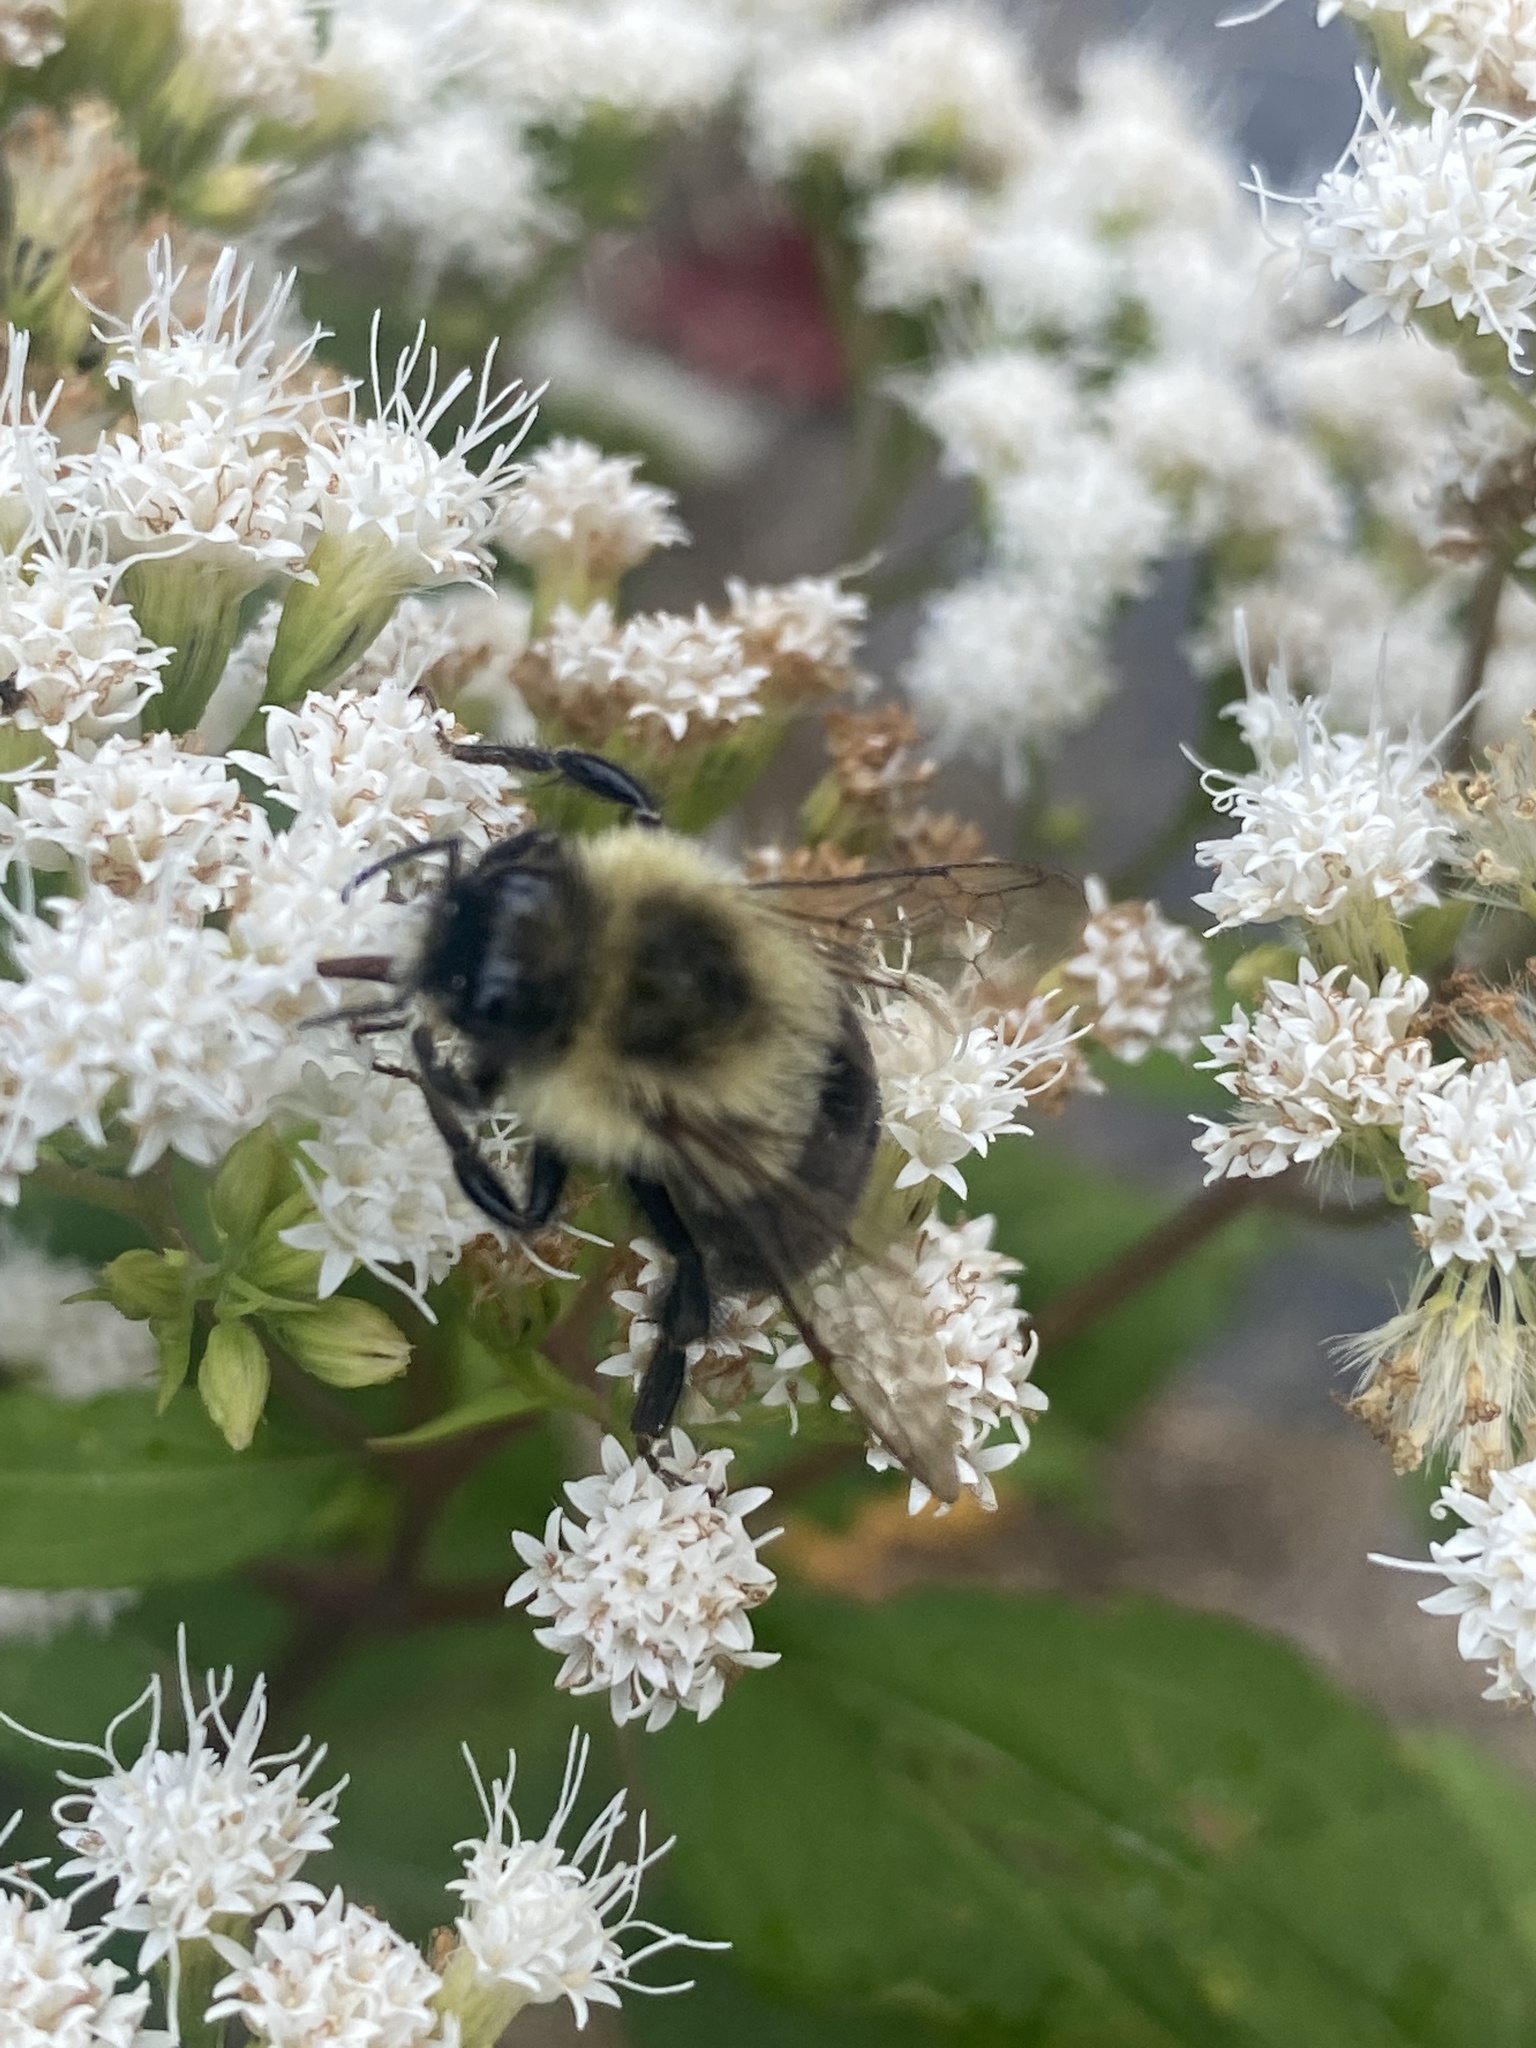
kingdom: Animalia
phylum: Arthropoda
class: Insecta
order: Hymenoptera
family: Apidae
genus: Bombus
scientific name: Bombus impatiens
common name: Common eastern bumble bee
